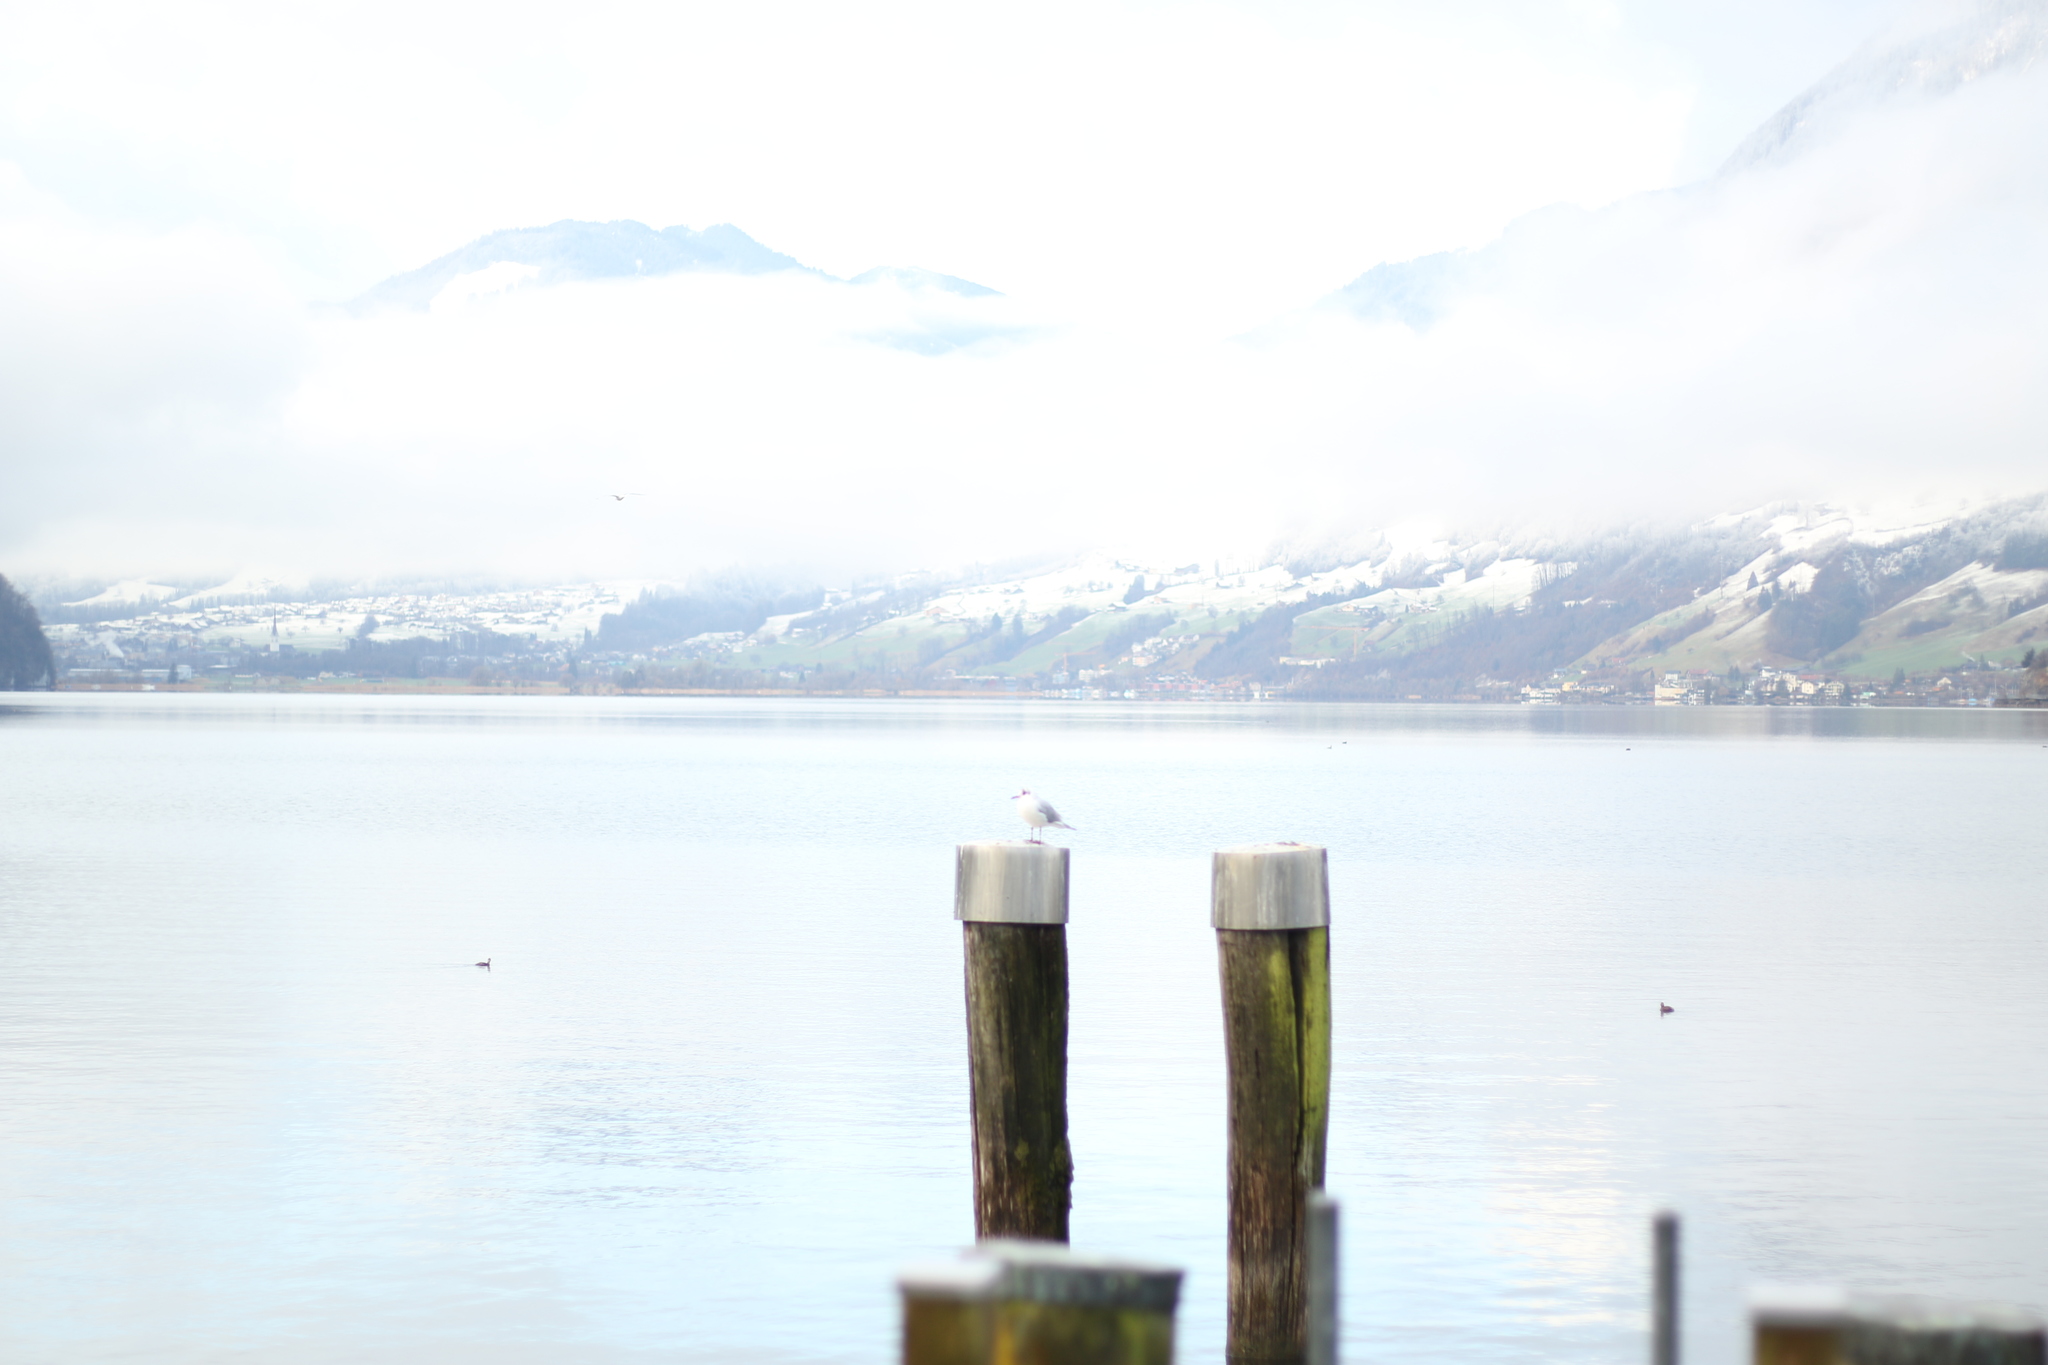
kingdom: Animalia
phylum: Chordata
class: Aves
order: Charadriiformes
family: Laridae
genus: Chroicocephalus
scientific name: Chroicocephalus ridibundus
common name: Black-headed gull
